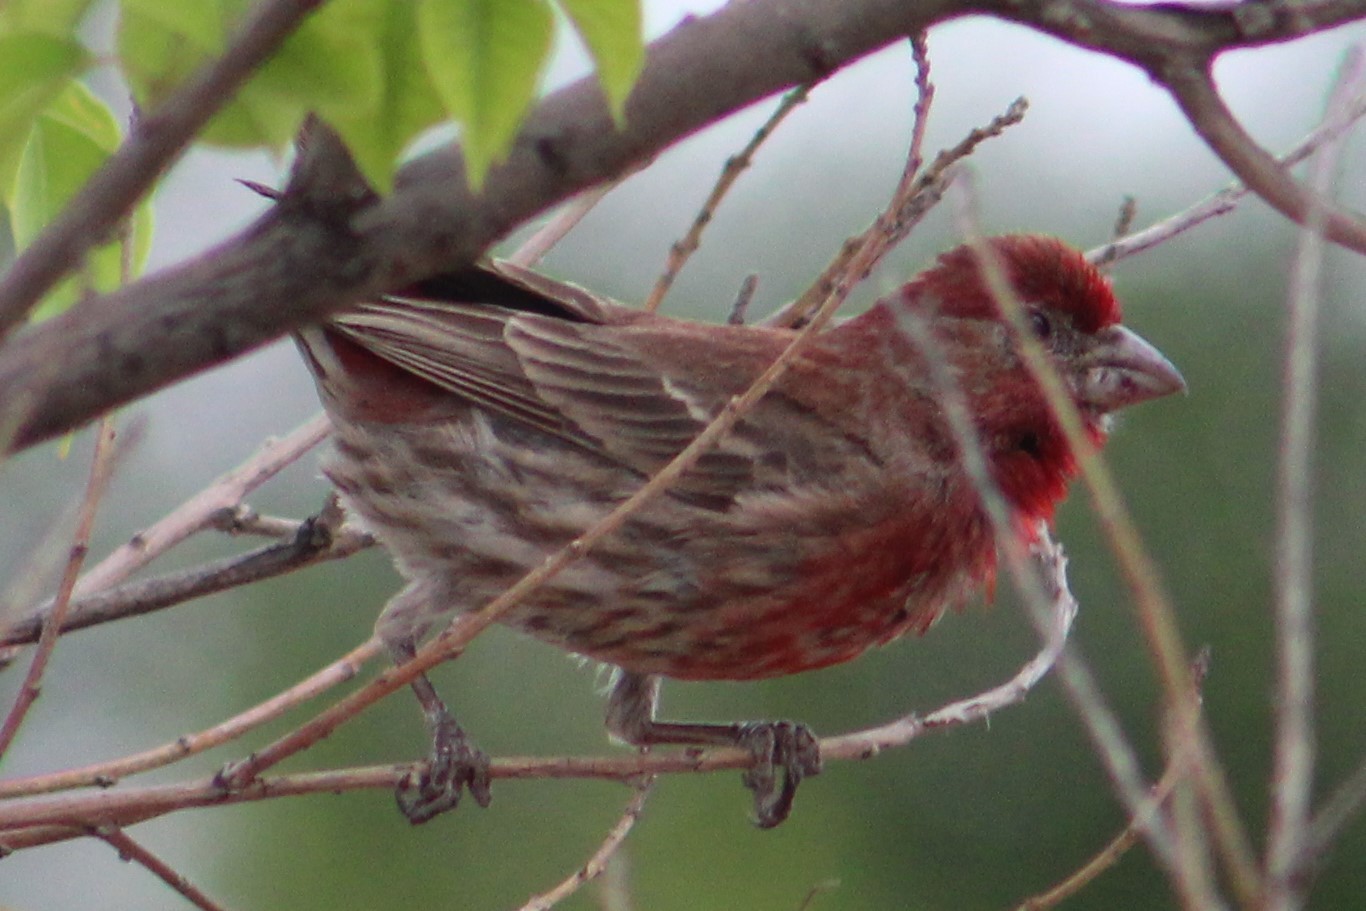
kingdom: Animalia
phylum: Chordata
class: Aves
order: Passeriformes
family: Fringillidae
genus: Haemorhous
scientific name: Haemorhous mexicanus
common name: House finch
